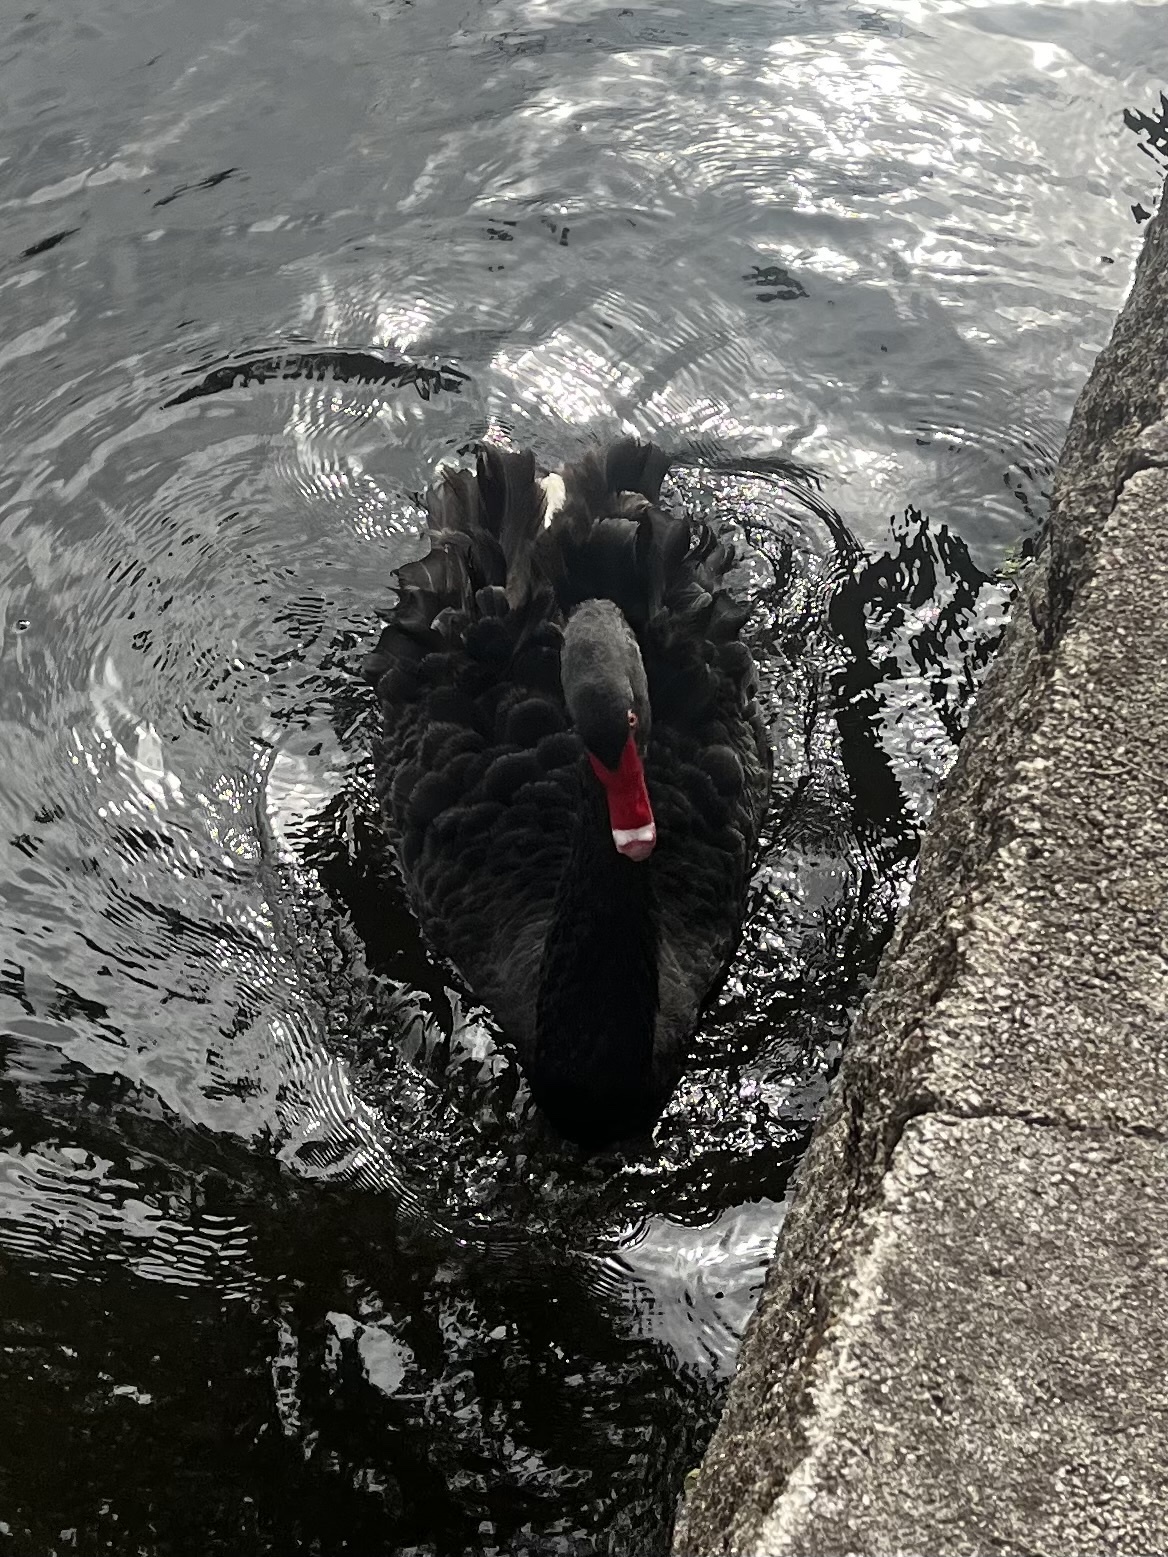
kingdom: Animalia
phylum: Chordata
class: Aves
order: Anseriformes
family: Anatidae
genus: Cygnus
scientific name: Cygnus atratus
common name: Black swan
